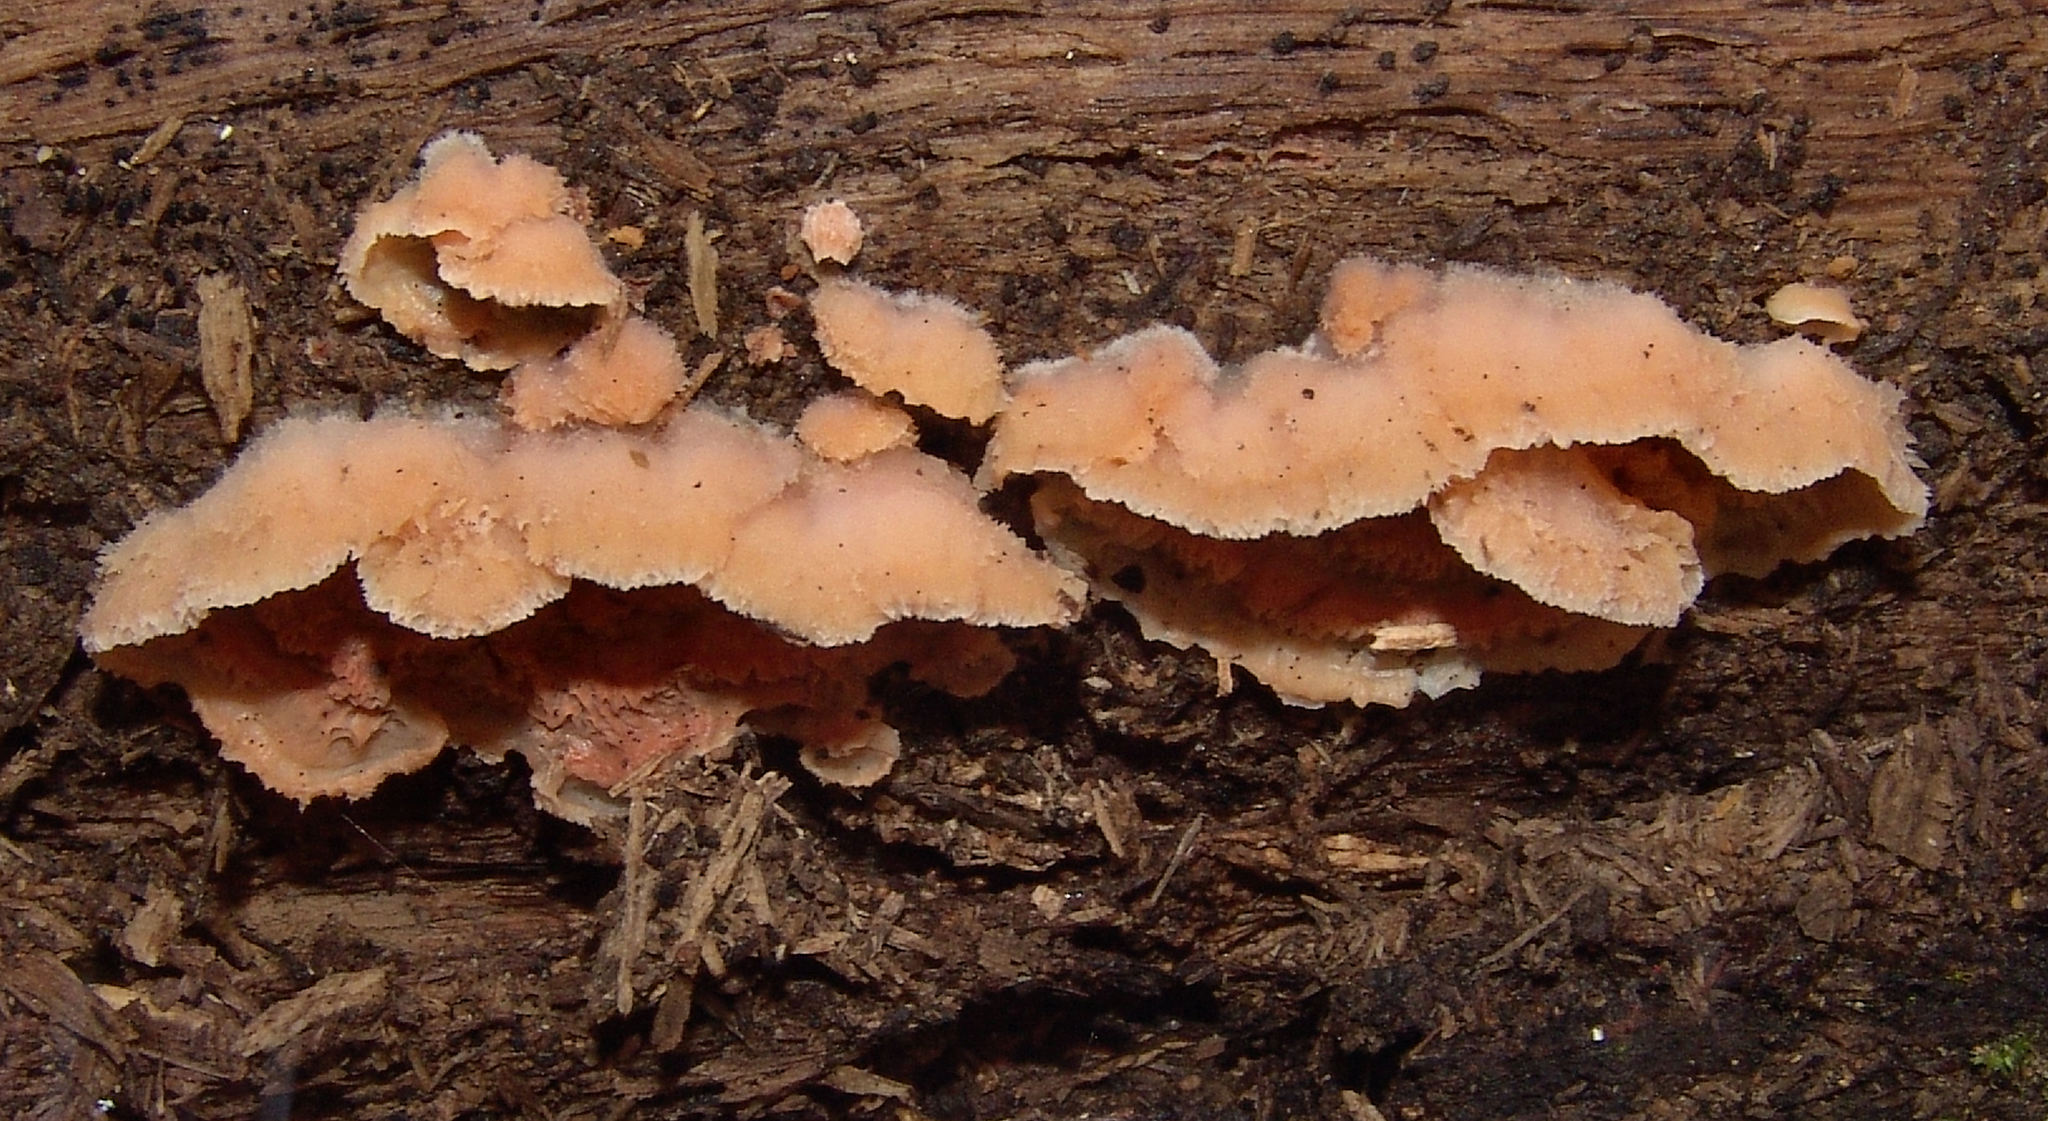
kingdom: Fungi
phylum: Basidiomycota
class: Agaricomycetes
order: Polyporales
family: Meruliaceae
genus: Phlebia
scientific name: Phlebia tremellosa
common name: Jelly rot
